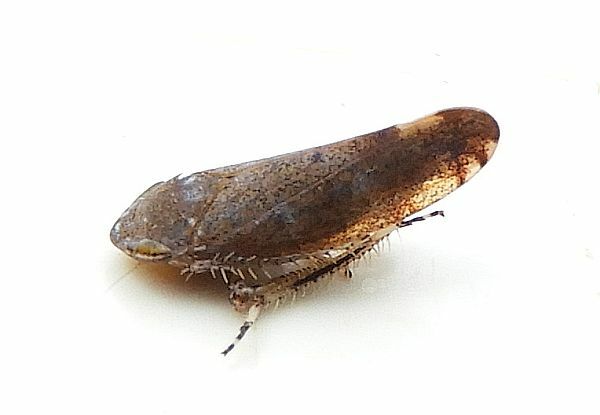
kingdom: Animalia
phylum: Arthropoda
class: Insecta
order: Hemiptera
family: Cicadellidae
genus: Fieberiella
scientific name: Fieberiella florii
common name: Flor’s leafhopper
